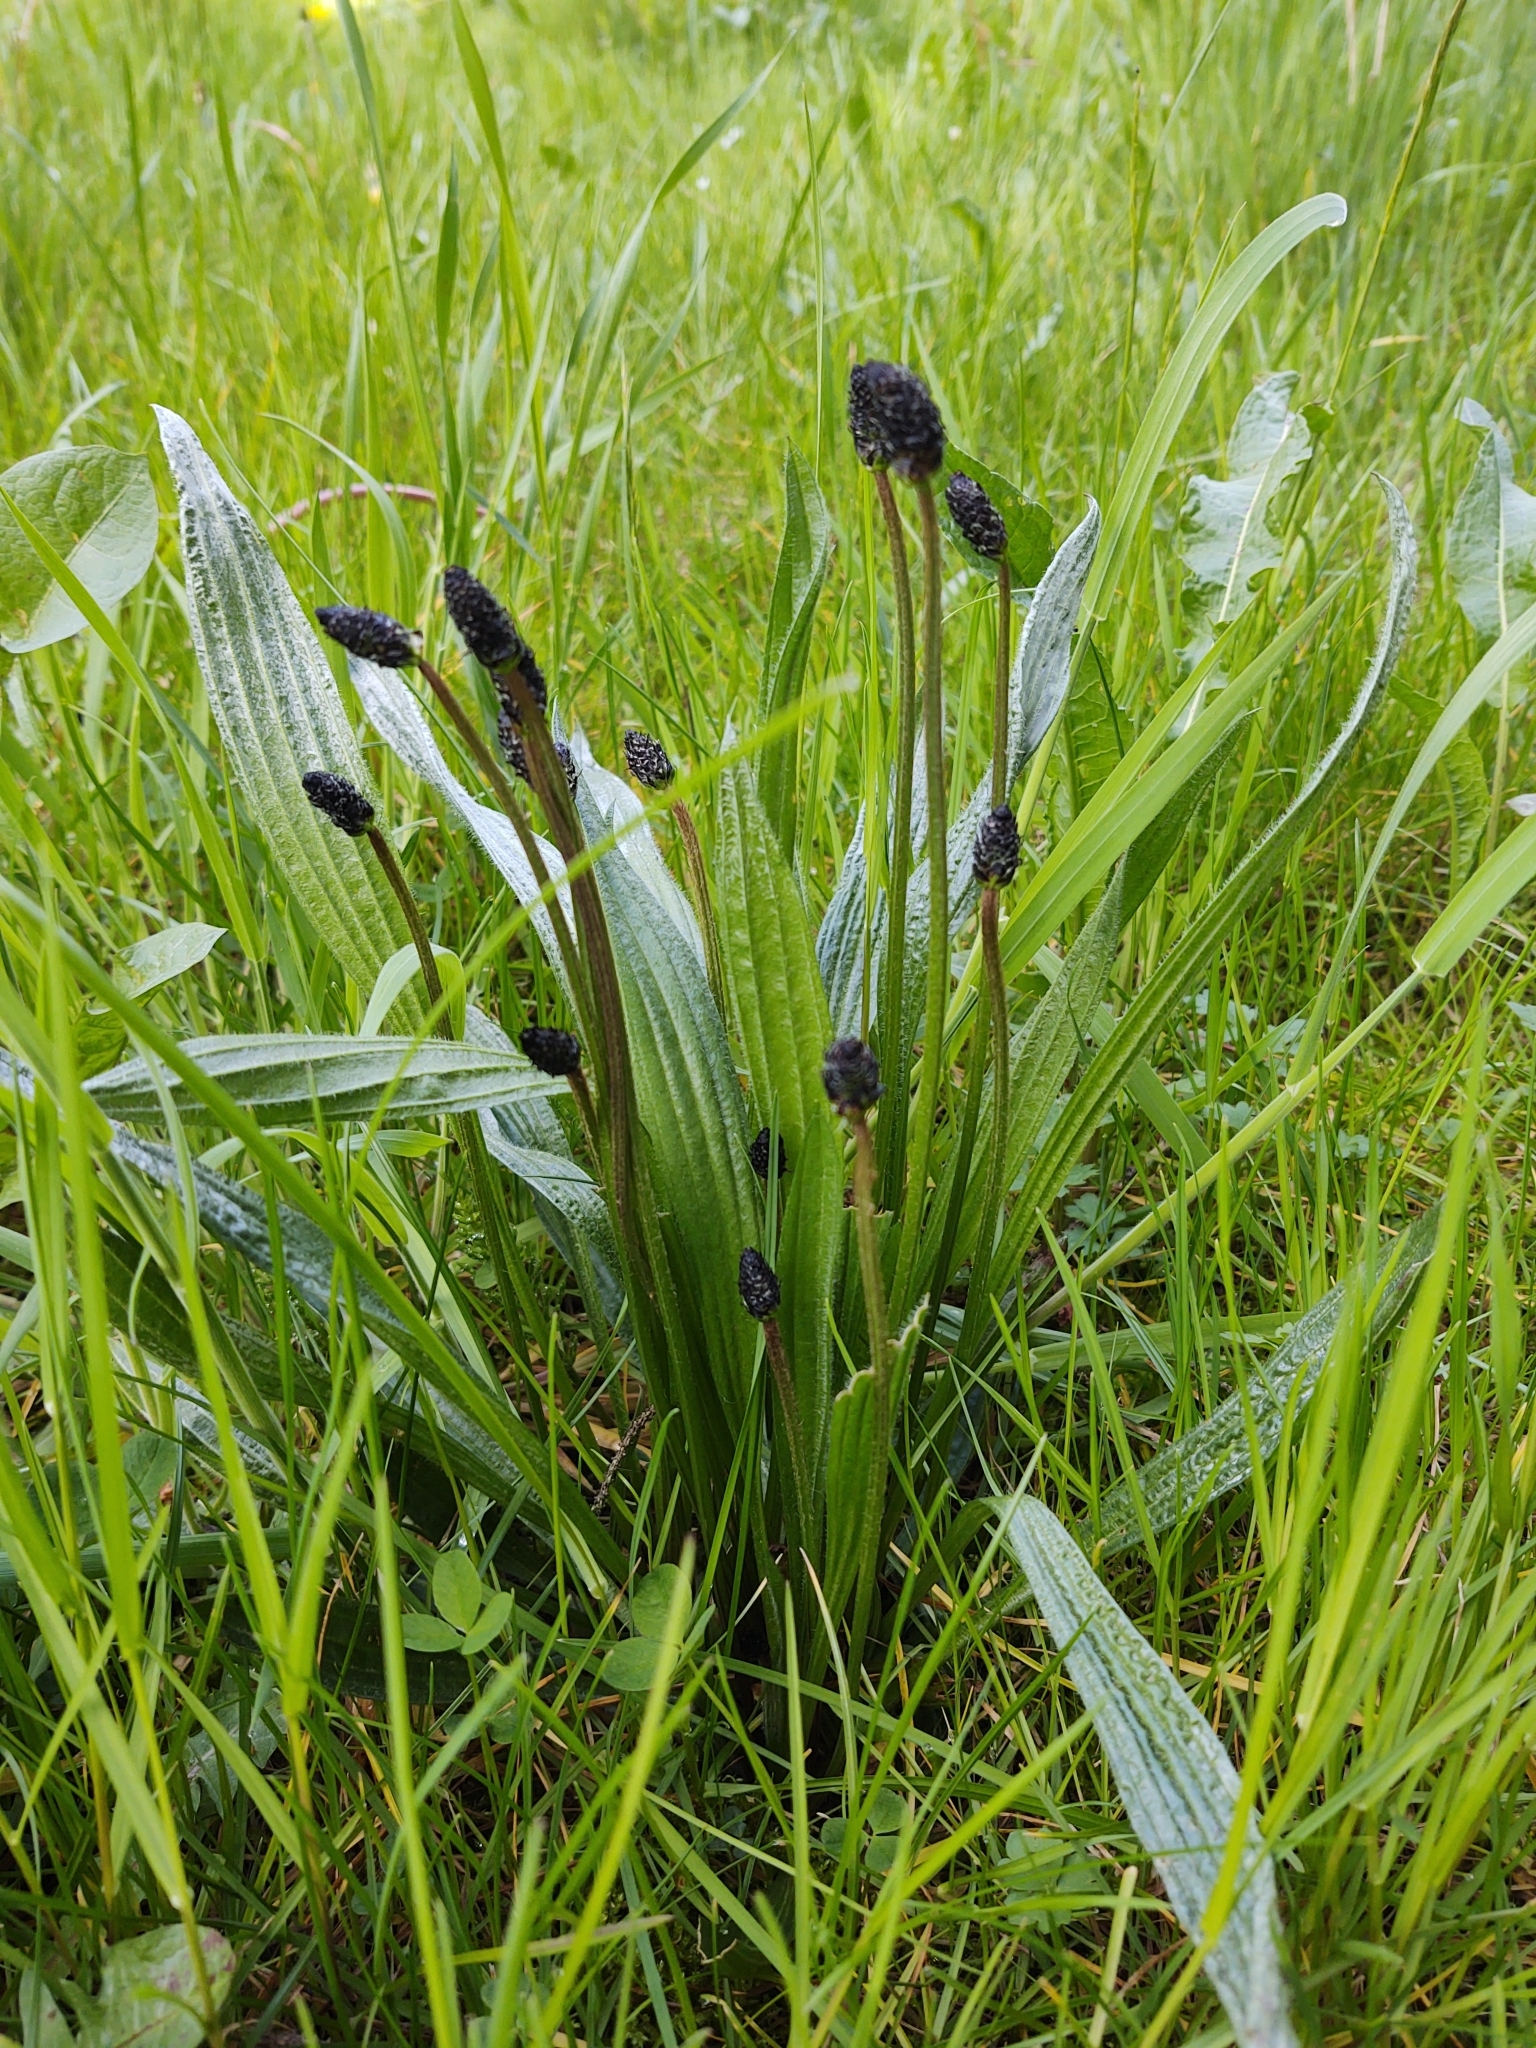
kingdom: Plantae
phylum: Tracheophyta
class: Magnoliopsida
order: Lamiales
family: Plantaginaceae
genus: Plantago
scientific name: Plantago lanceolata
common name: Ribwort plantain
